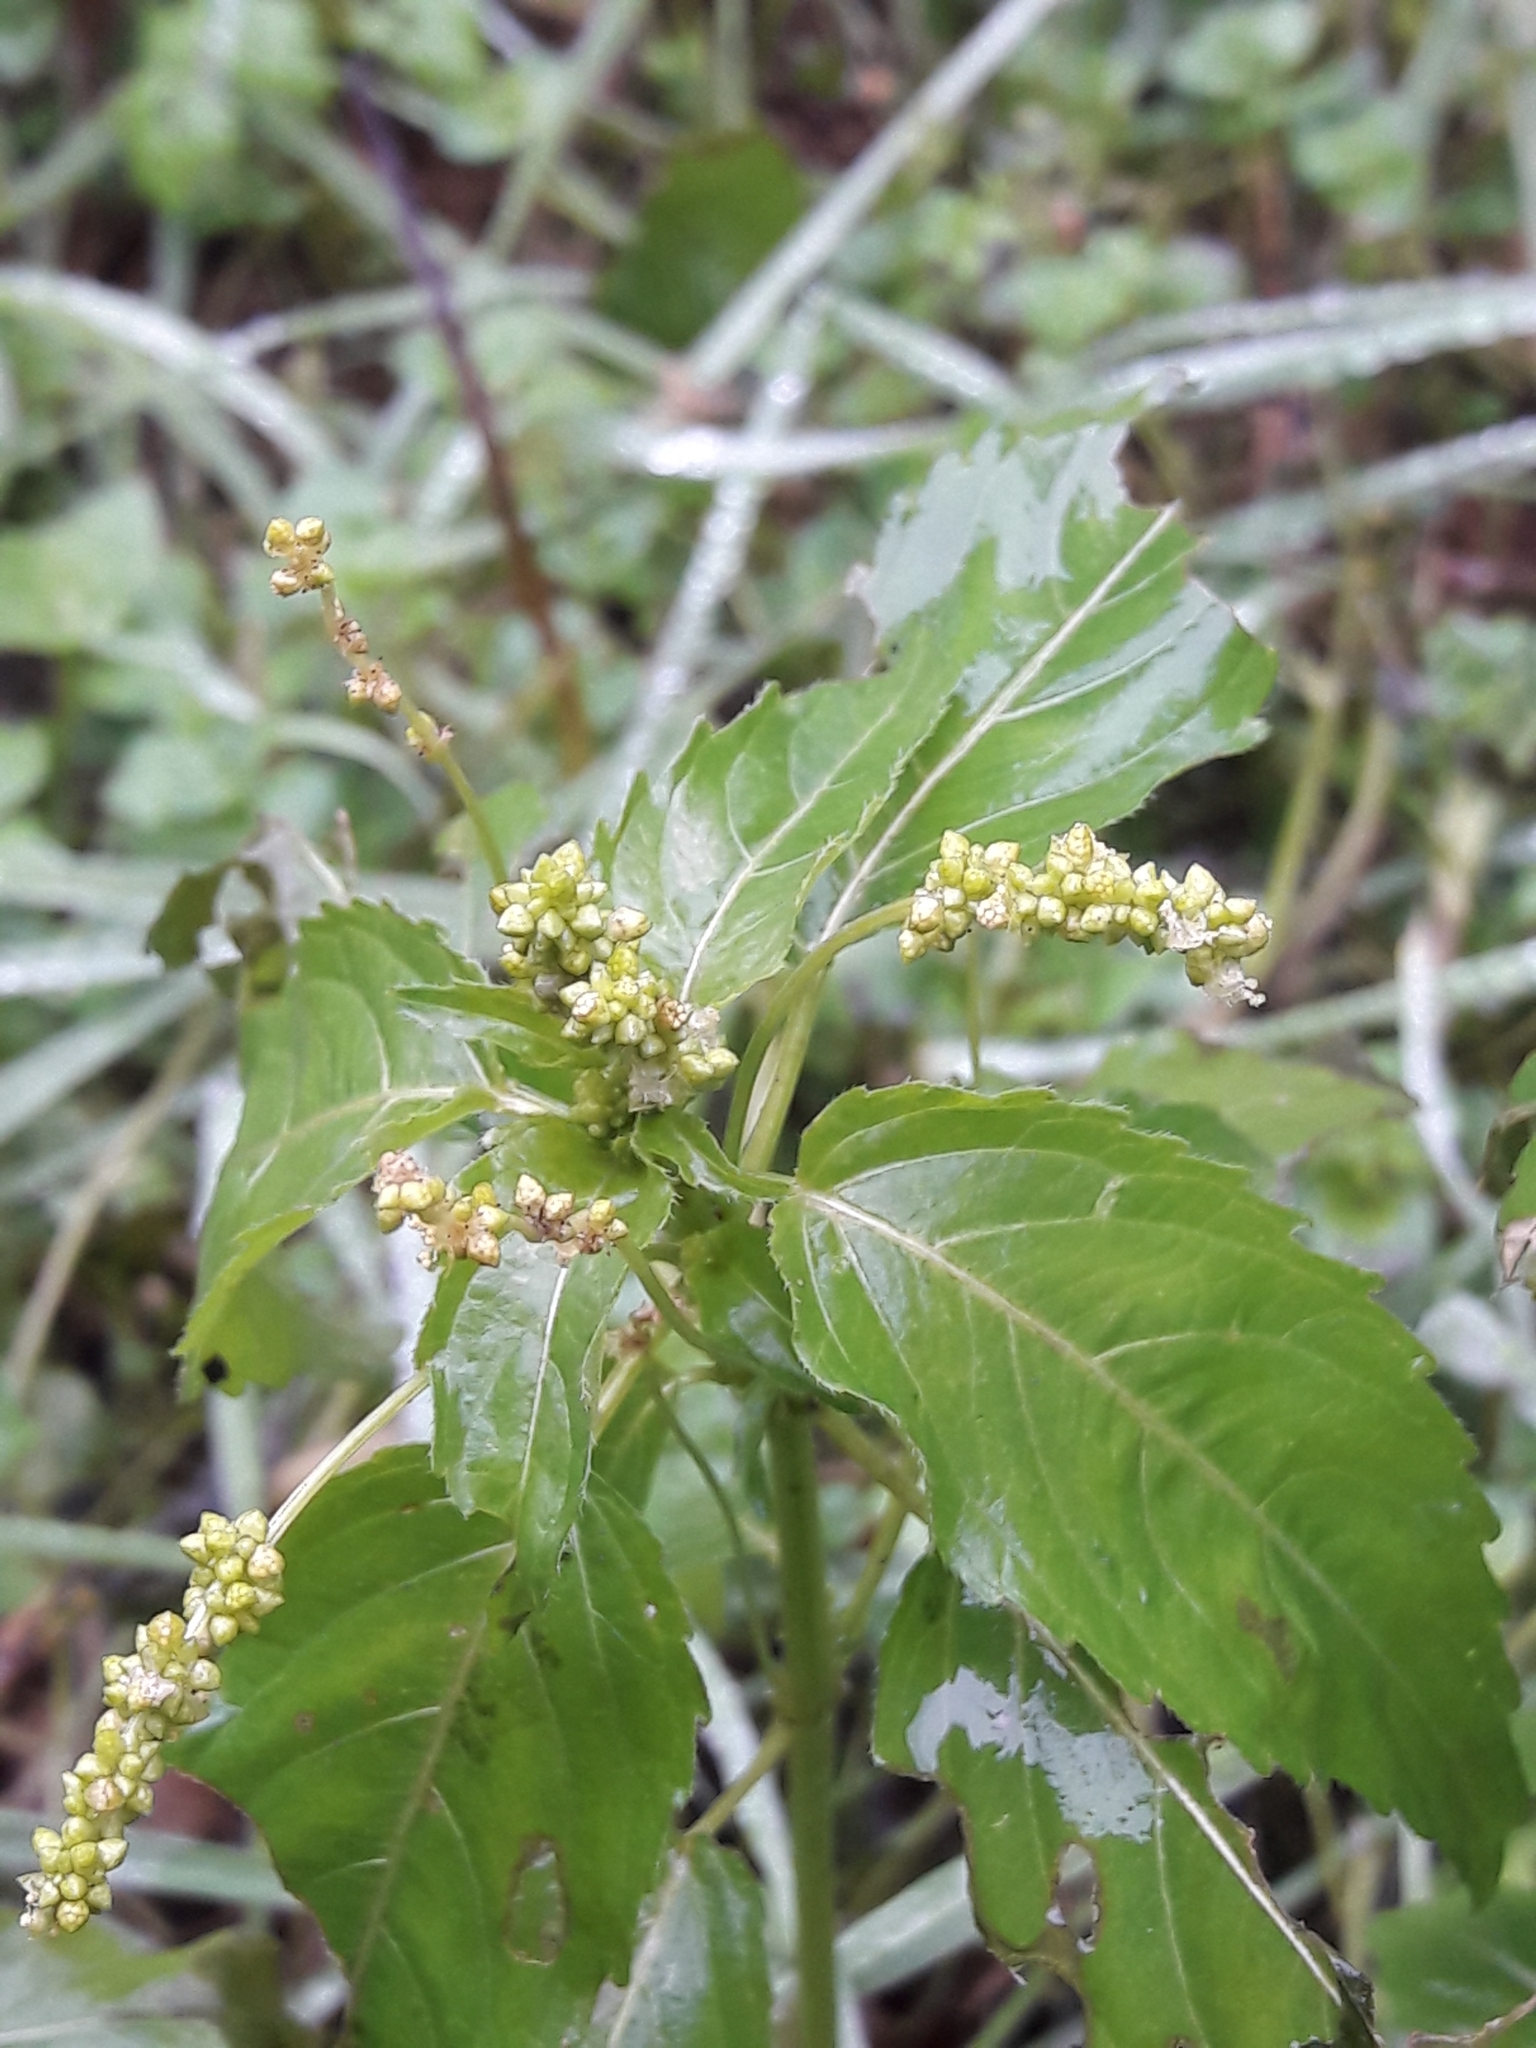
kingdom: Plantae
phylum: Tracheophyta
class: Magnoliopsida
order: Malpighiales
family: Euphorbiaceae
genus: Mercurialis
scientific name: Mercurialis annua
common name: Annual mercury
